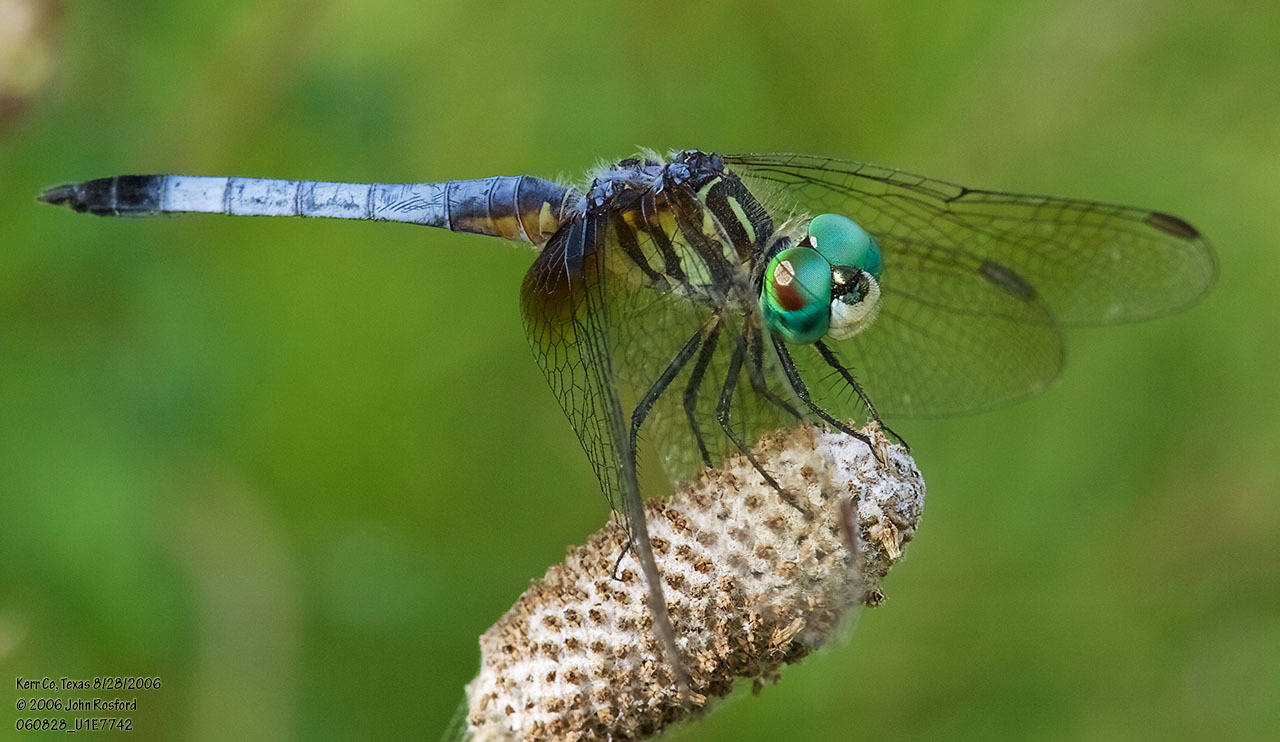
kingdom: Animalia
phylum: Arthropoda
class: Insecta
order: Odonata
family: Libellulidae
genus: Pachydiplax
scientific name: Pachydiplax longipennis
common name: Blue dasher
